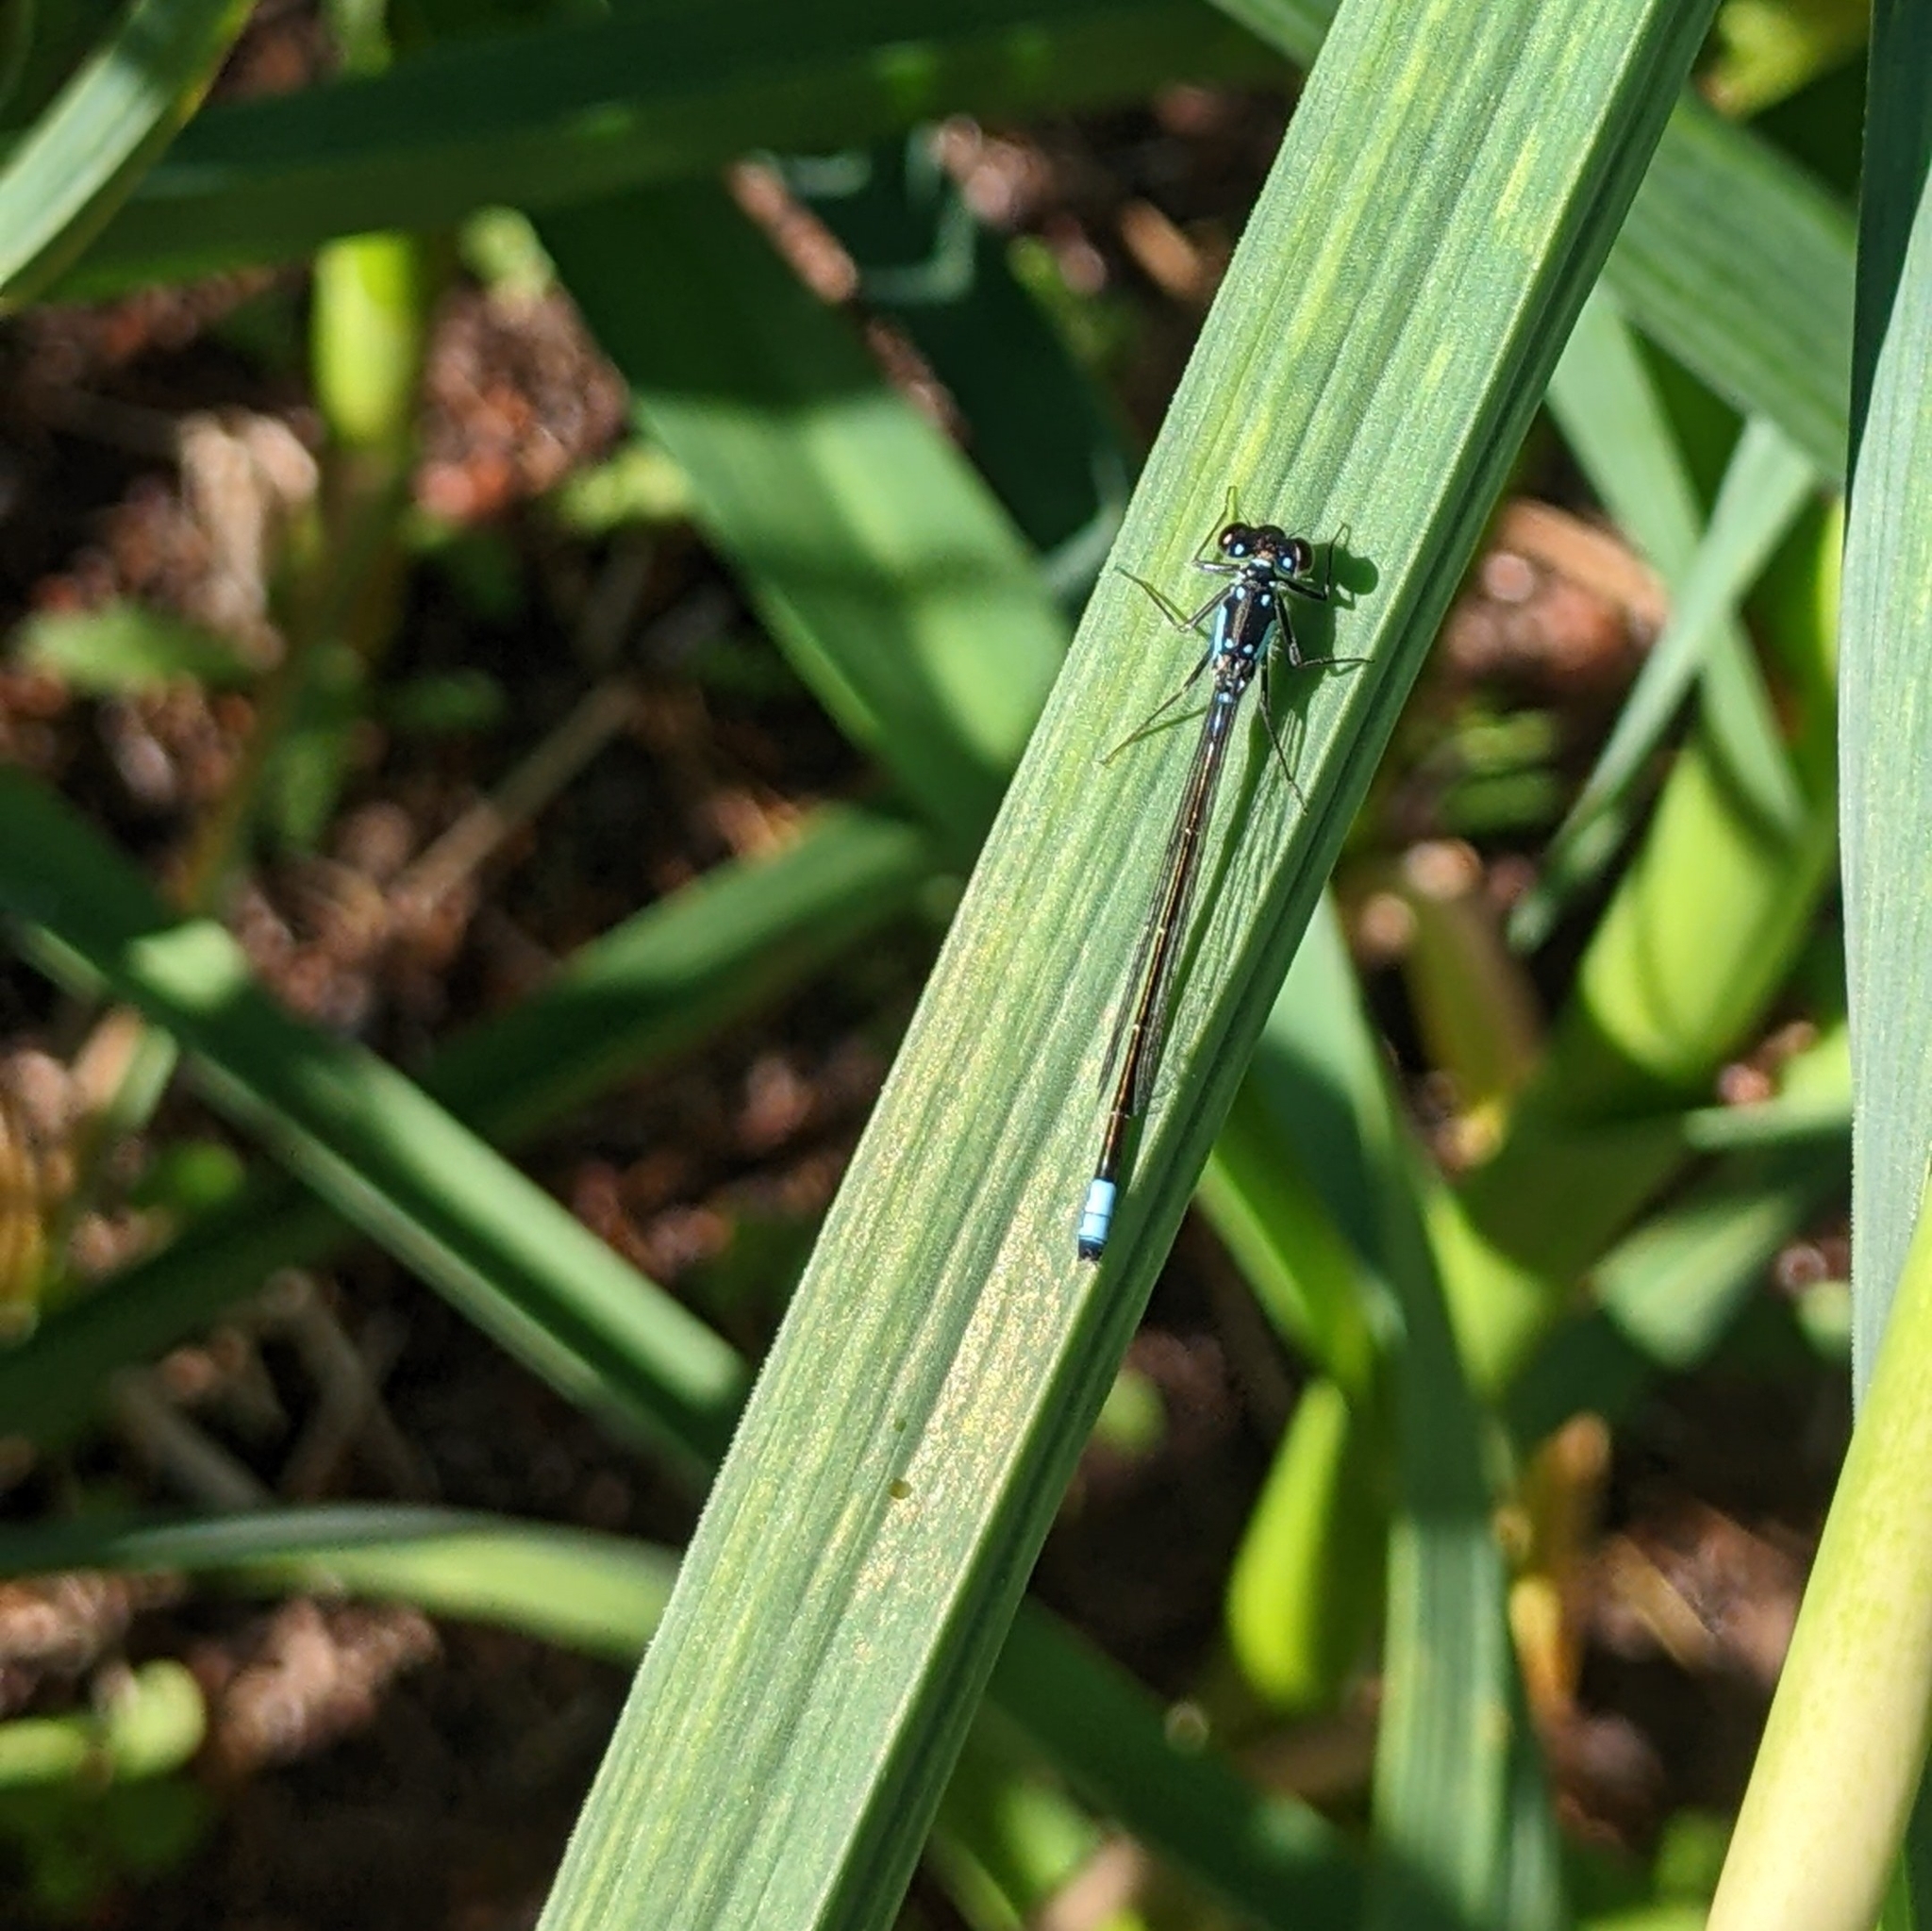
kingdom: Animalia
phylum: Arthropoda
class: Insecta
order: Odonata
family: Coenagrionidae
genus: Ischnura
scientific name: Ischnura cervula
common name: Pacific forktail
